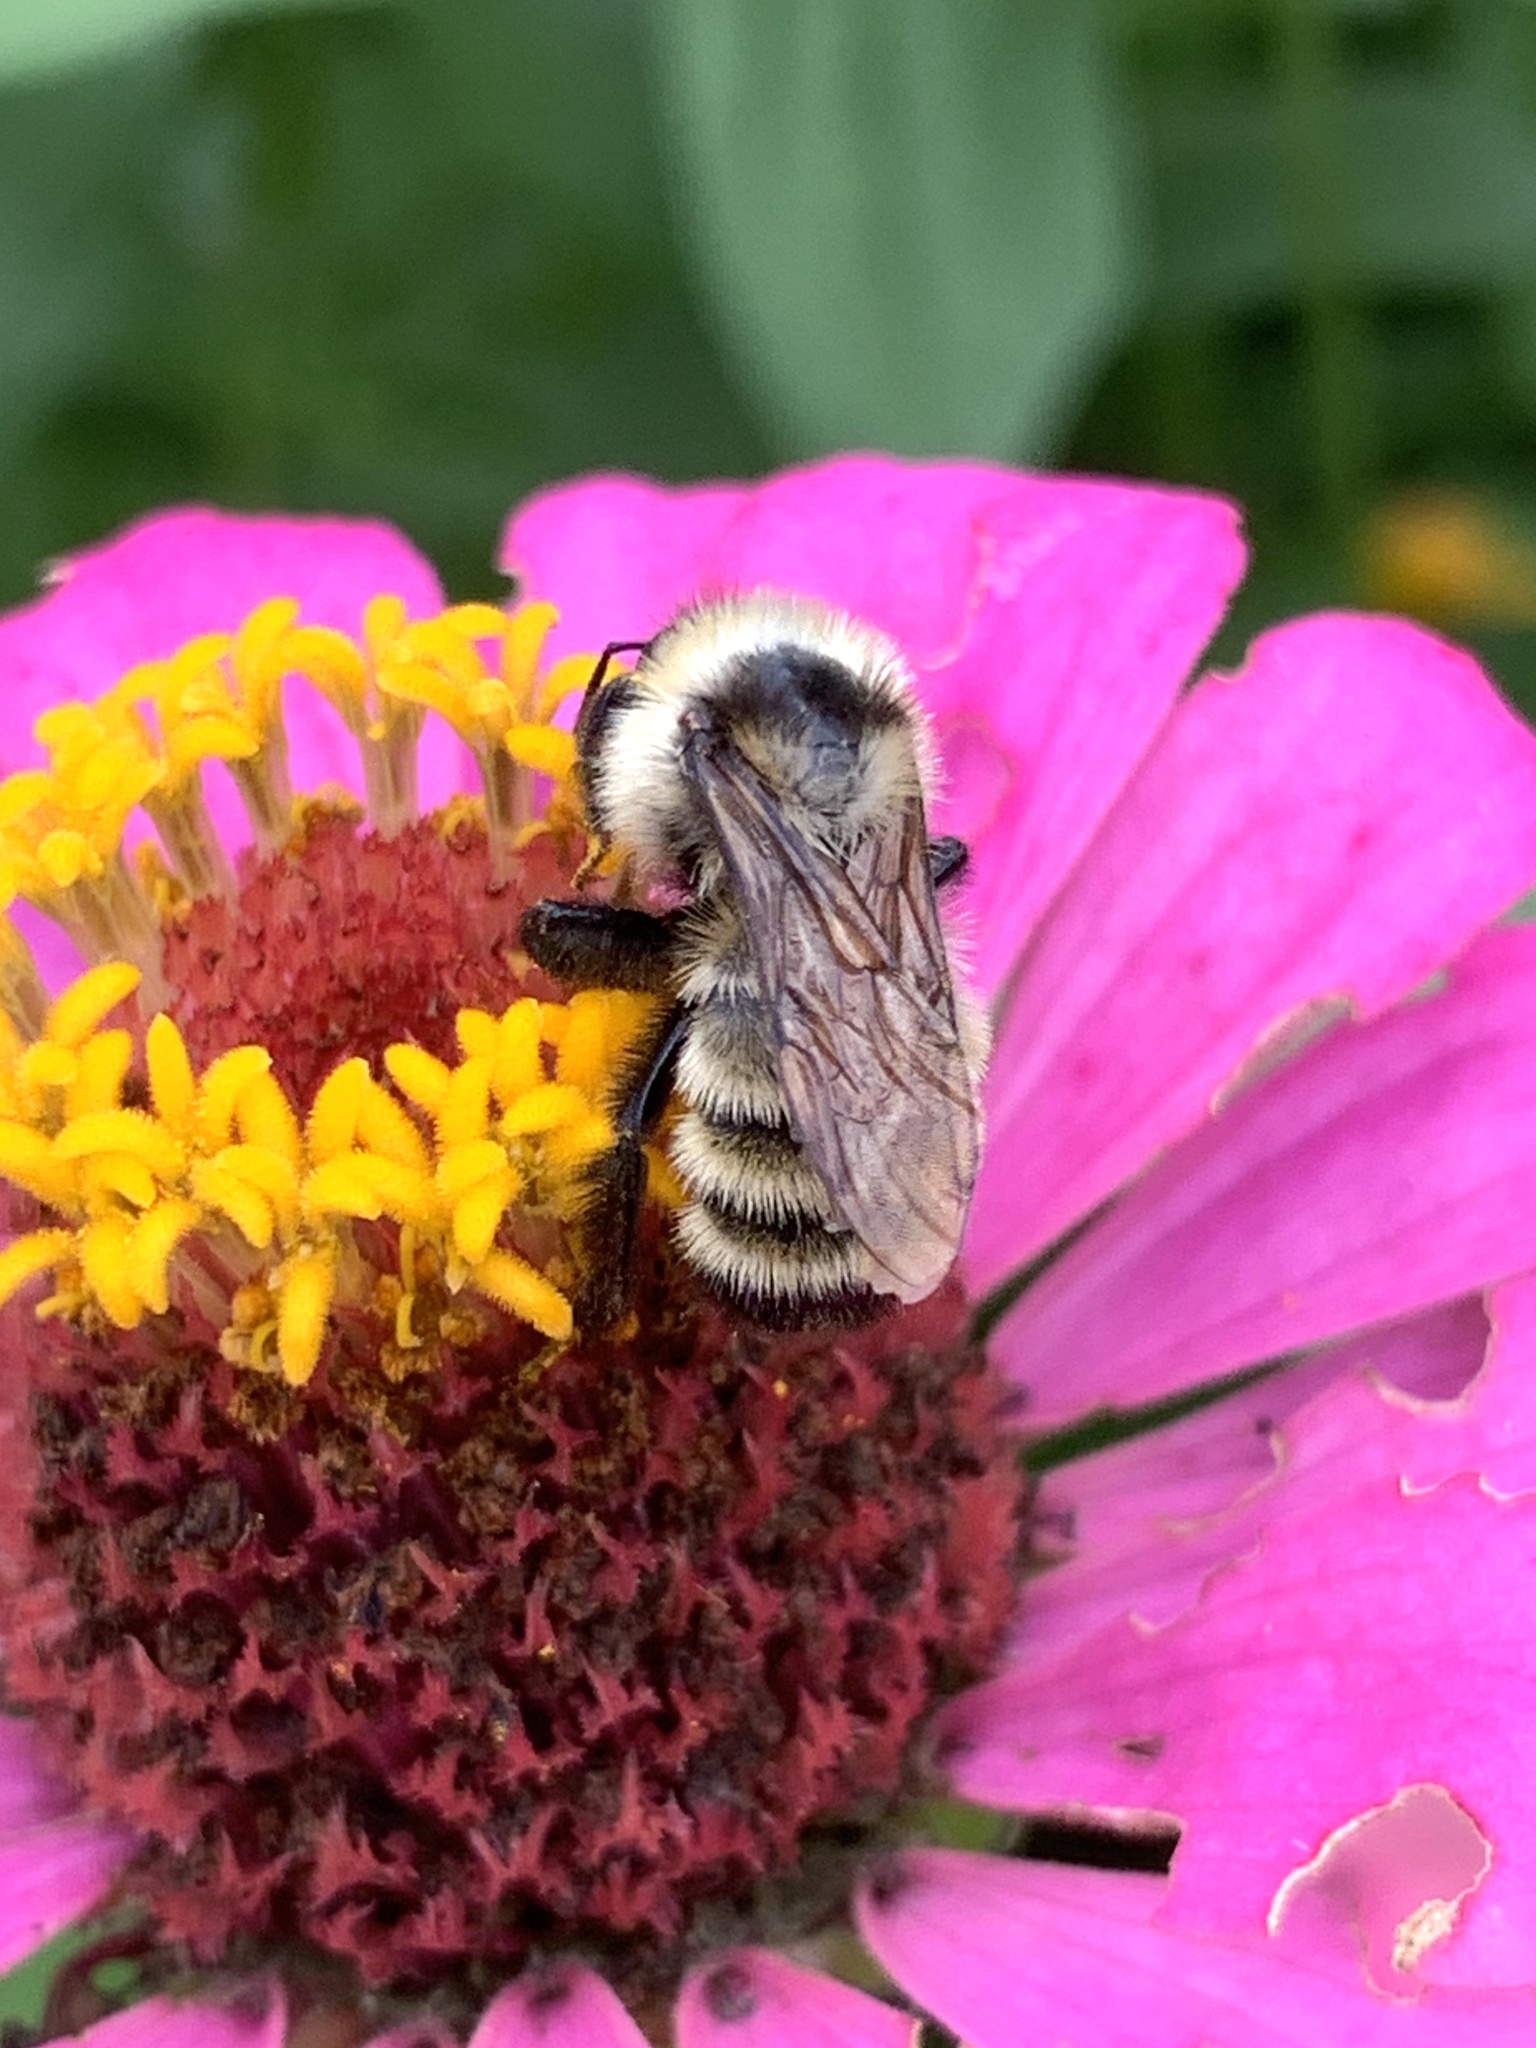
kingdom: Animalia
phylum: Arthropoda
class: Insecta
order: Hymenoptera
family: Apidae
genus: Bombus
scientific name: Bombus fervidus
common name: Yellow bumble bee
